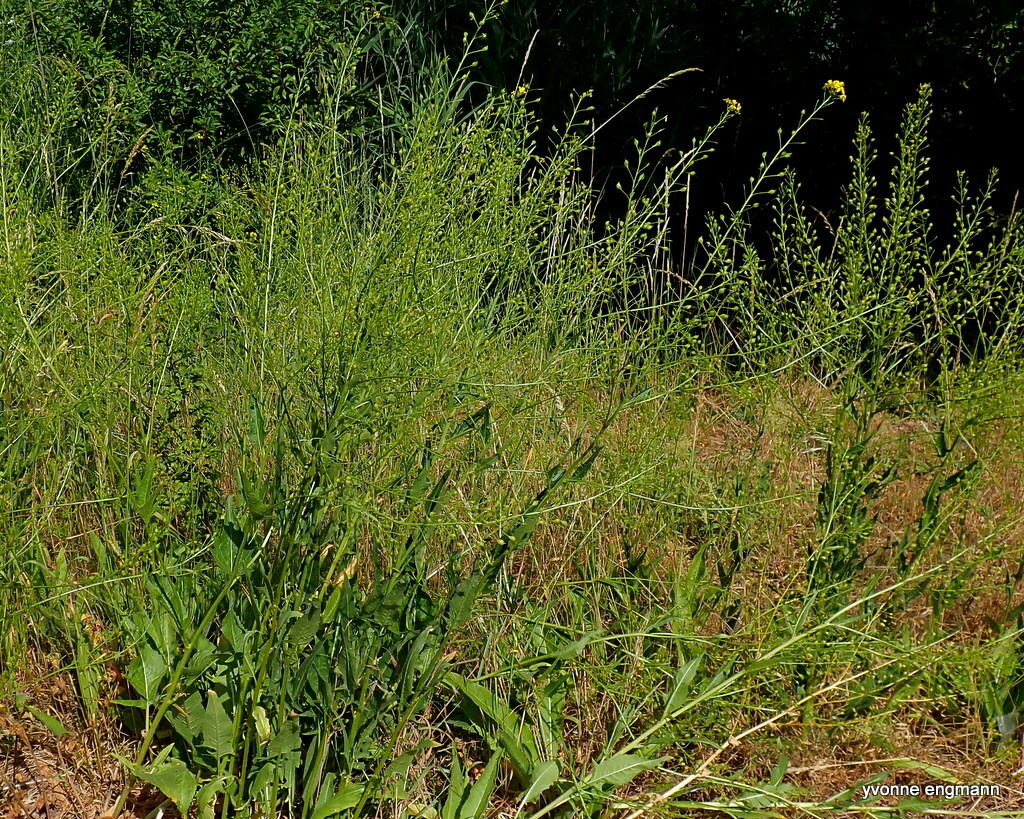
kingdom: Plantae
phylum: Tracheophyta
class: Magnoliopsida
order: Brassicales
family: Brassicaceae
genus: Bunias
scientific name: Bunias orientalis
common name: Warty-cabbage
